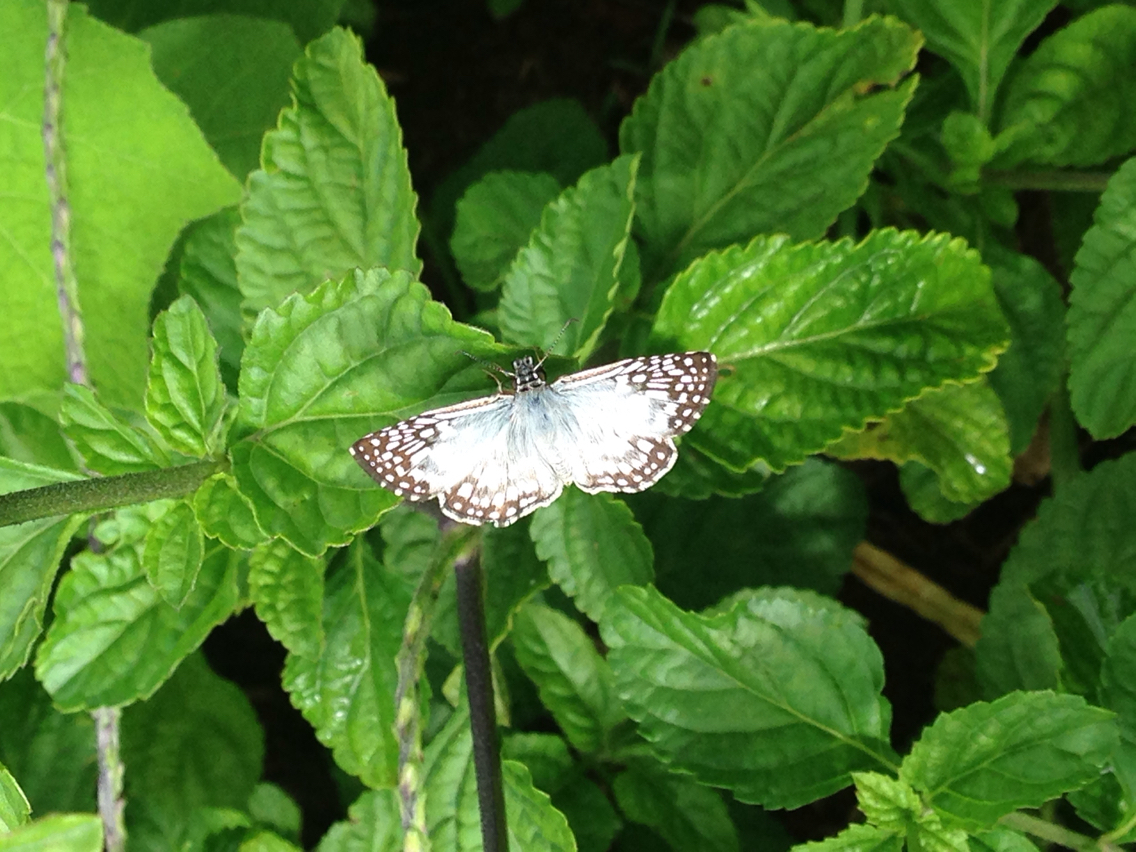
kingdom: Animalia
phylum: Arthropoda
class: Insecta
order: Lepidoptera
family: Hesperiidae
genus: Pyrgus
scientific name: Pyrgus oileus
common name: Tropical checkered-skipper
